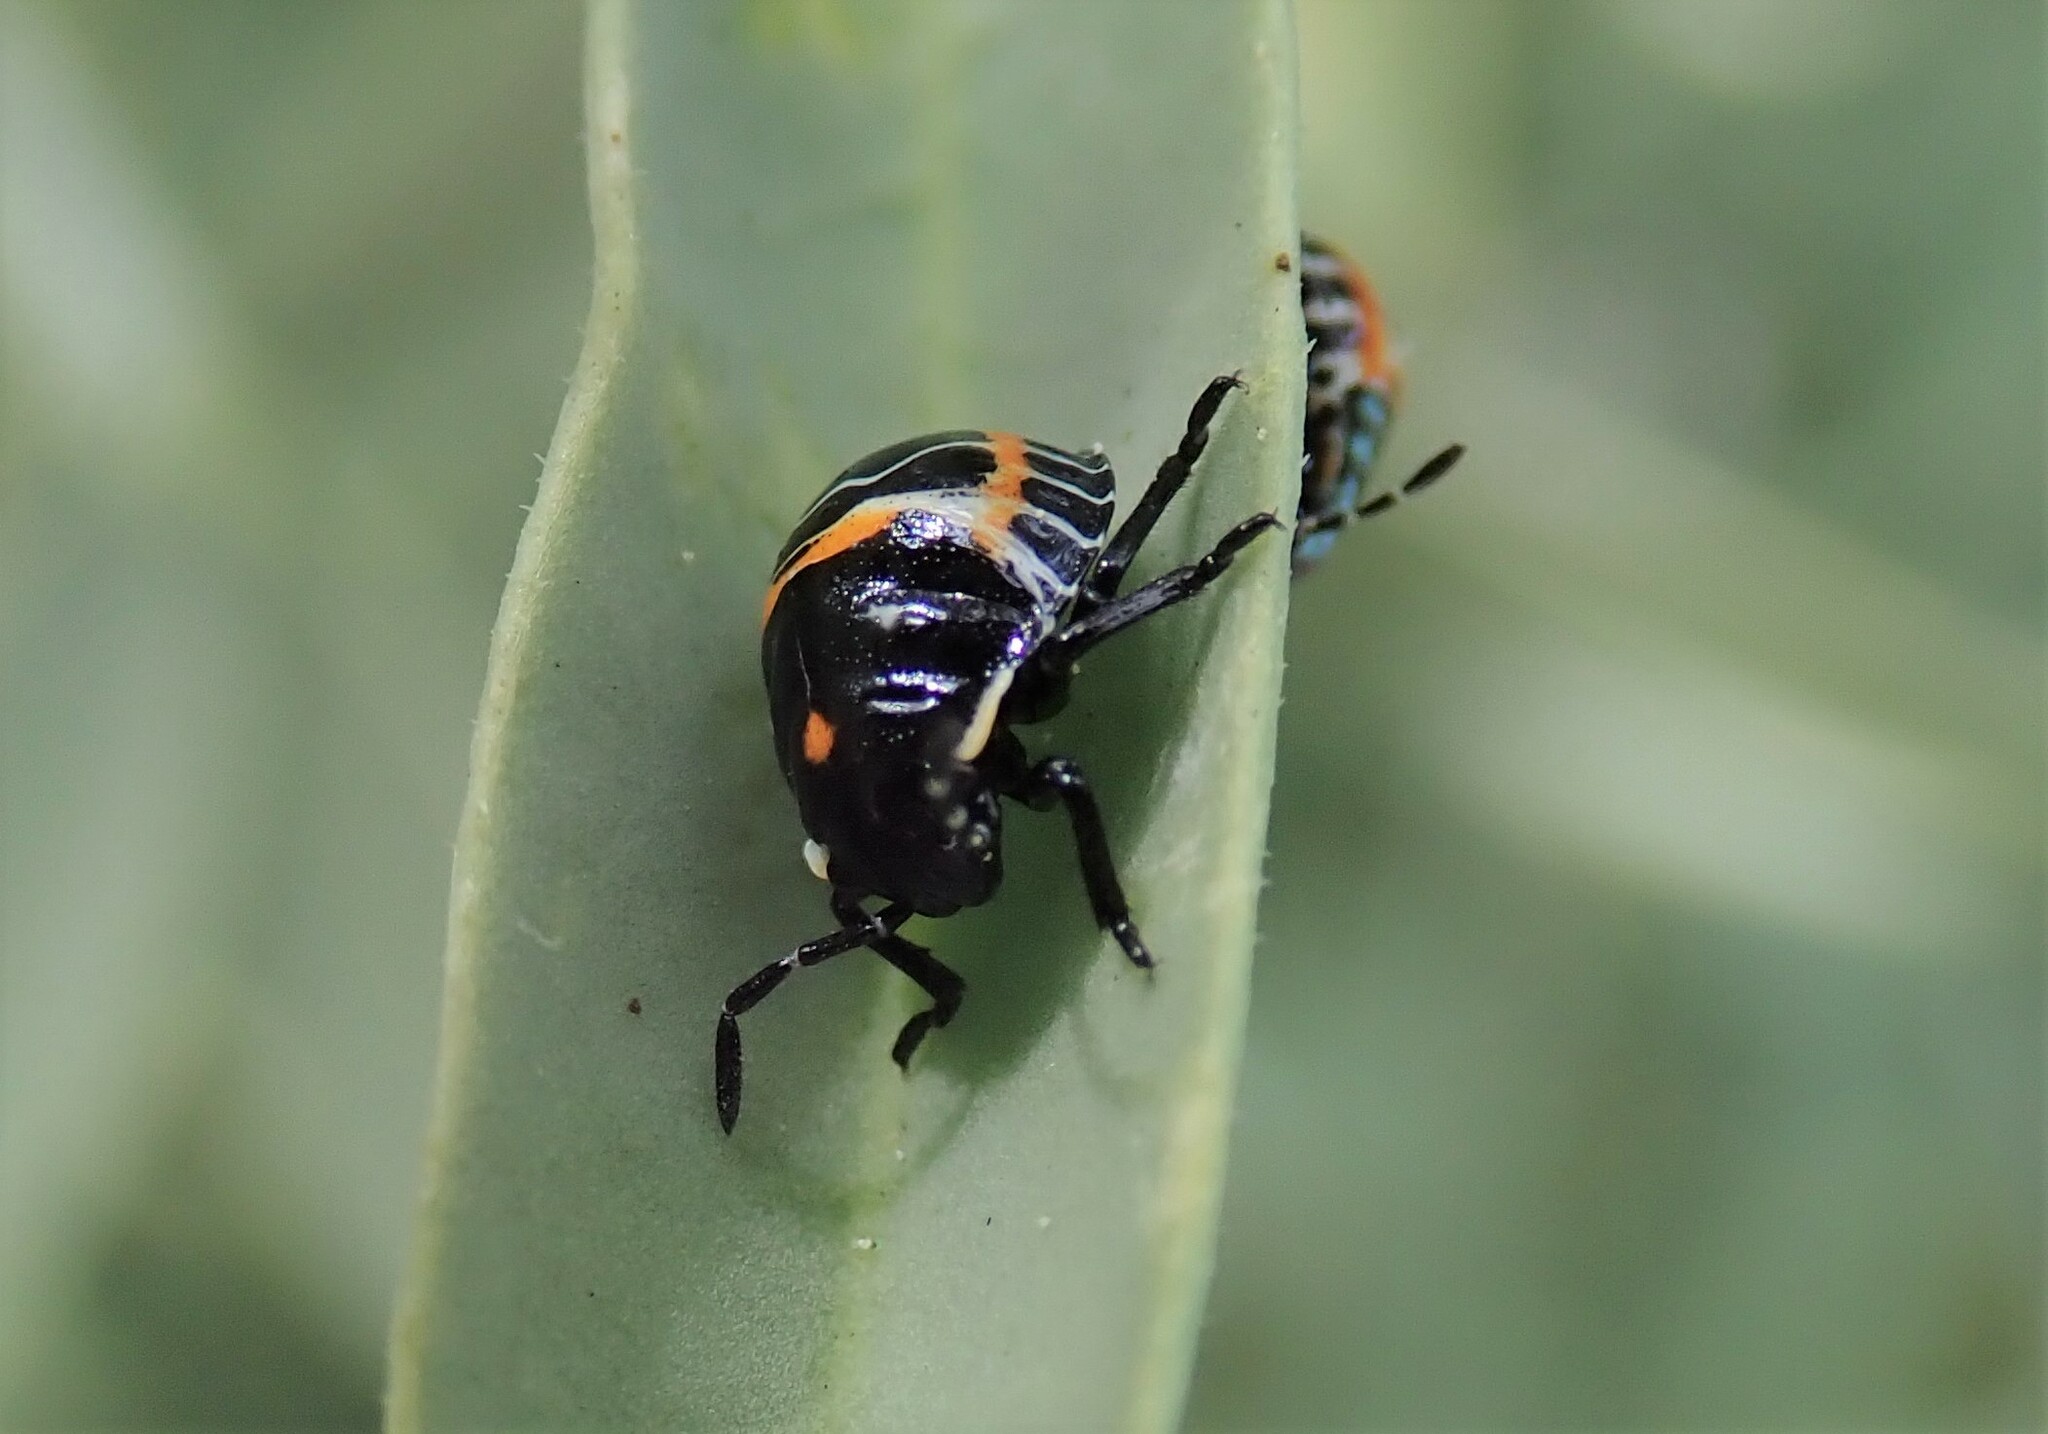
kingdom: Animalia
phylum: Arthropoda
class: Insecta
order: Hemiptera
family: Pentatomidae
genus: Murgantia
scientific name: Murgantia histrionica
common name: Harlequin bug
